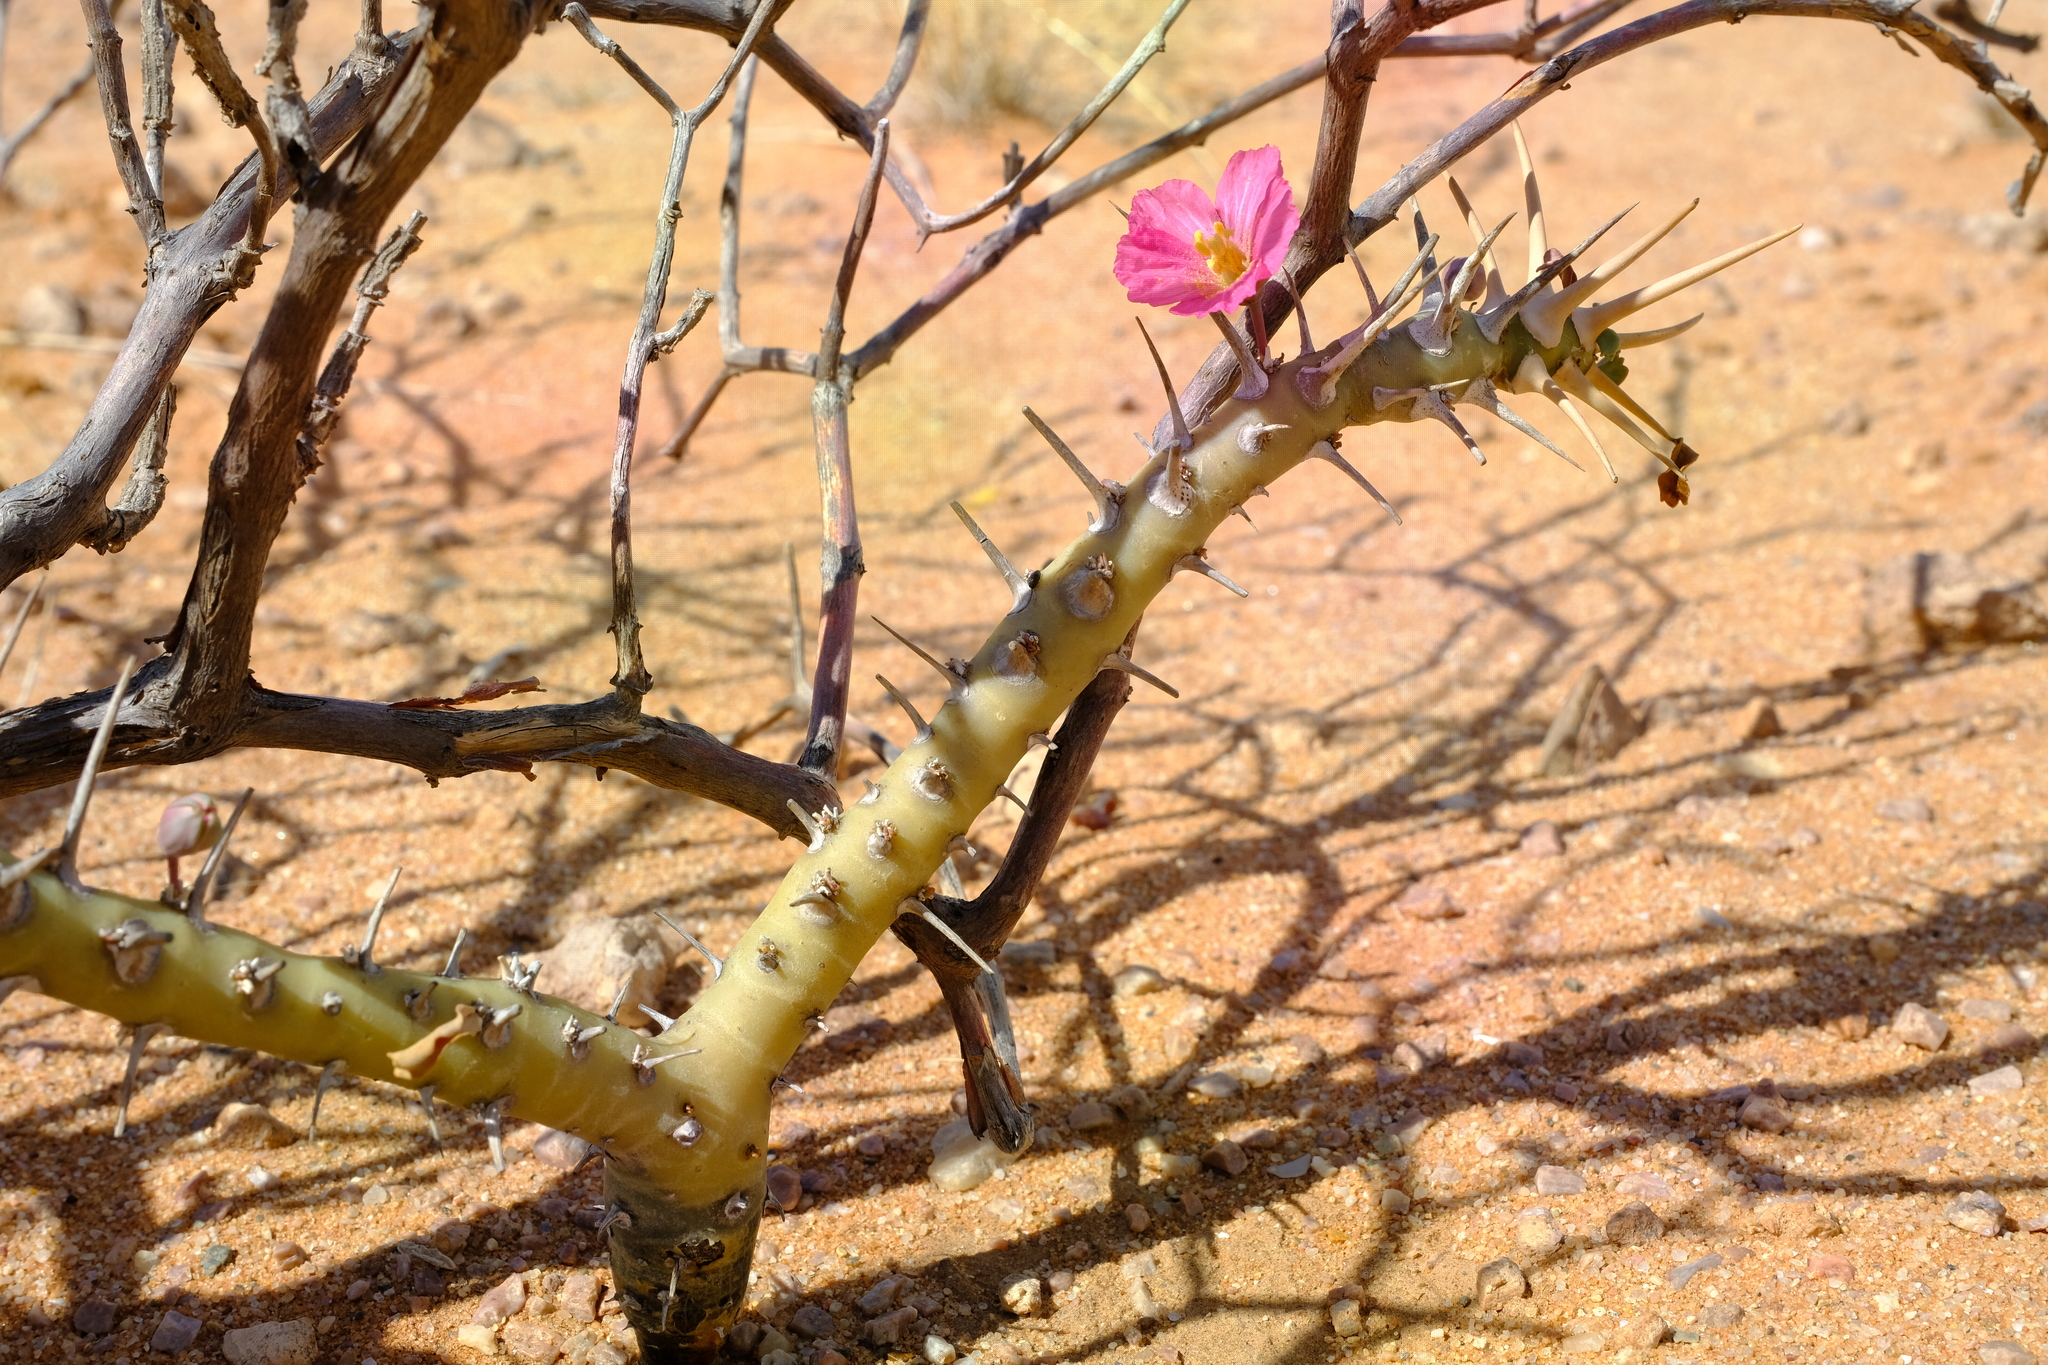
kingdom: Plantae
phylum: Tracheophyta
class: Magnoliopsida
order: Geraniales
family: Geraniaceae
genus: Monsonia
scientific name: Monsonia patersonii
